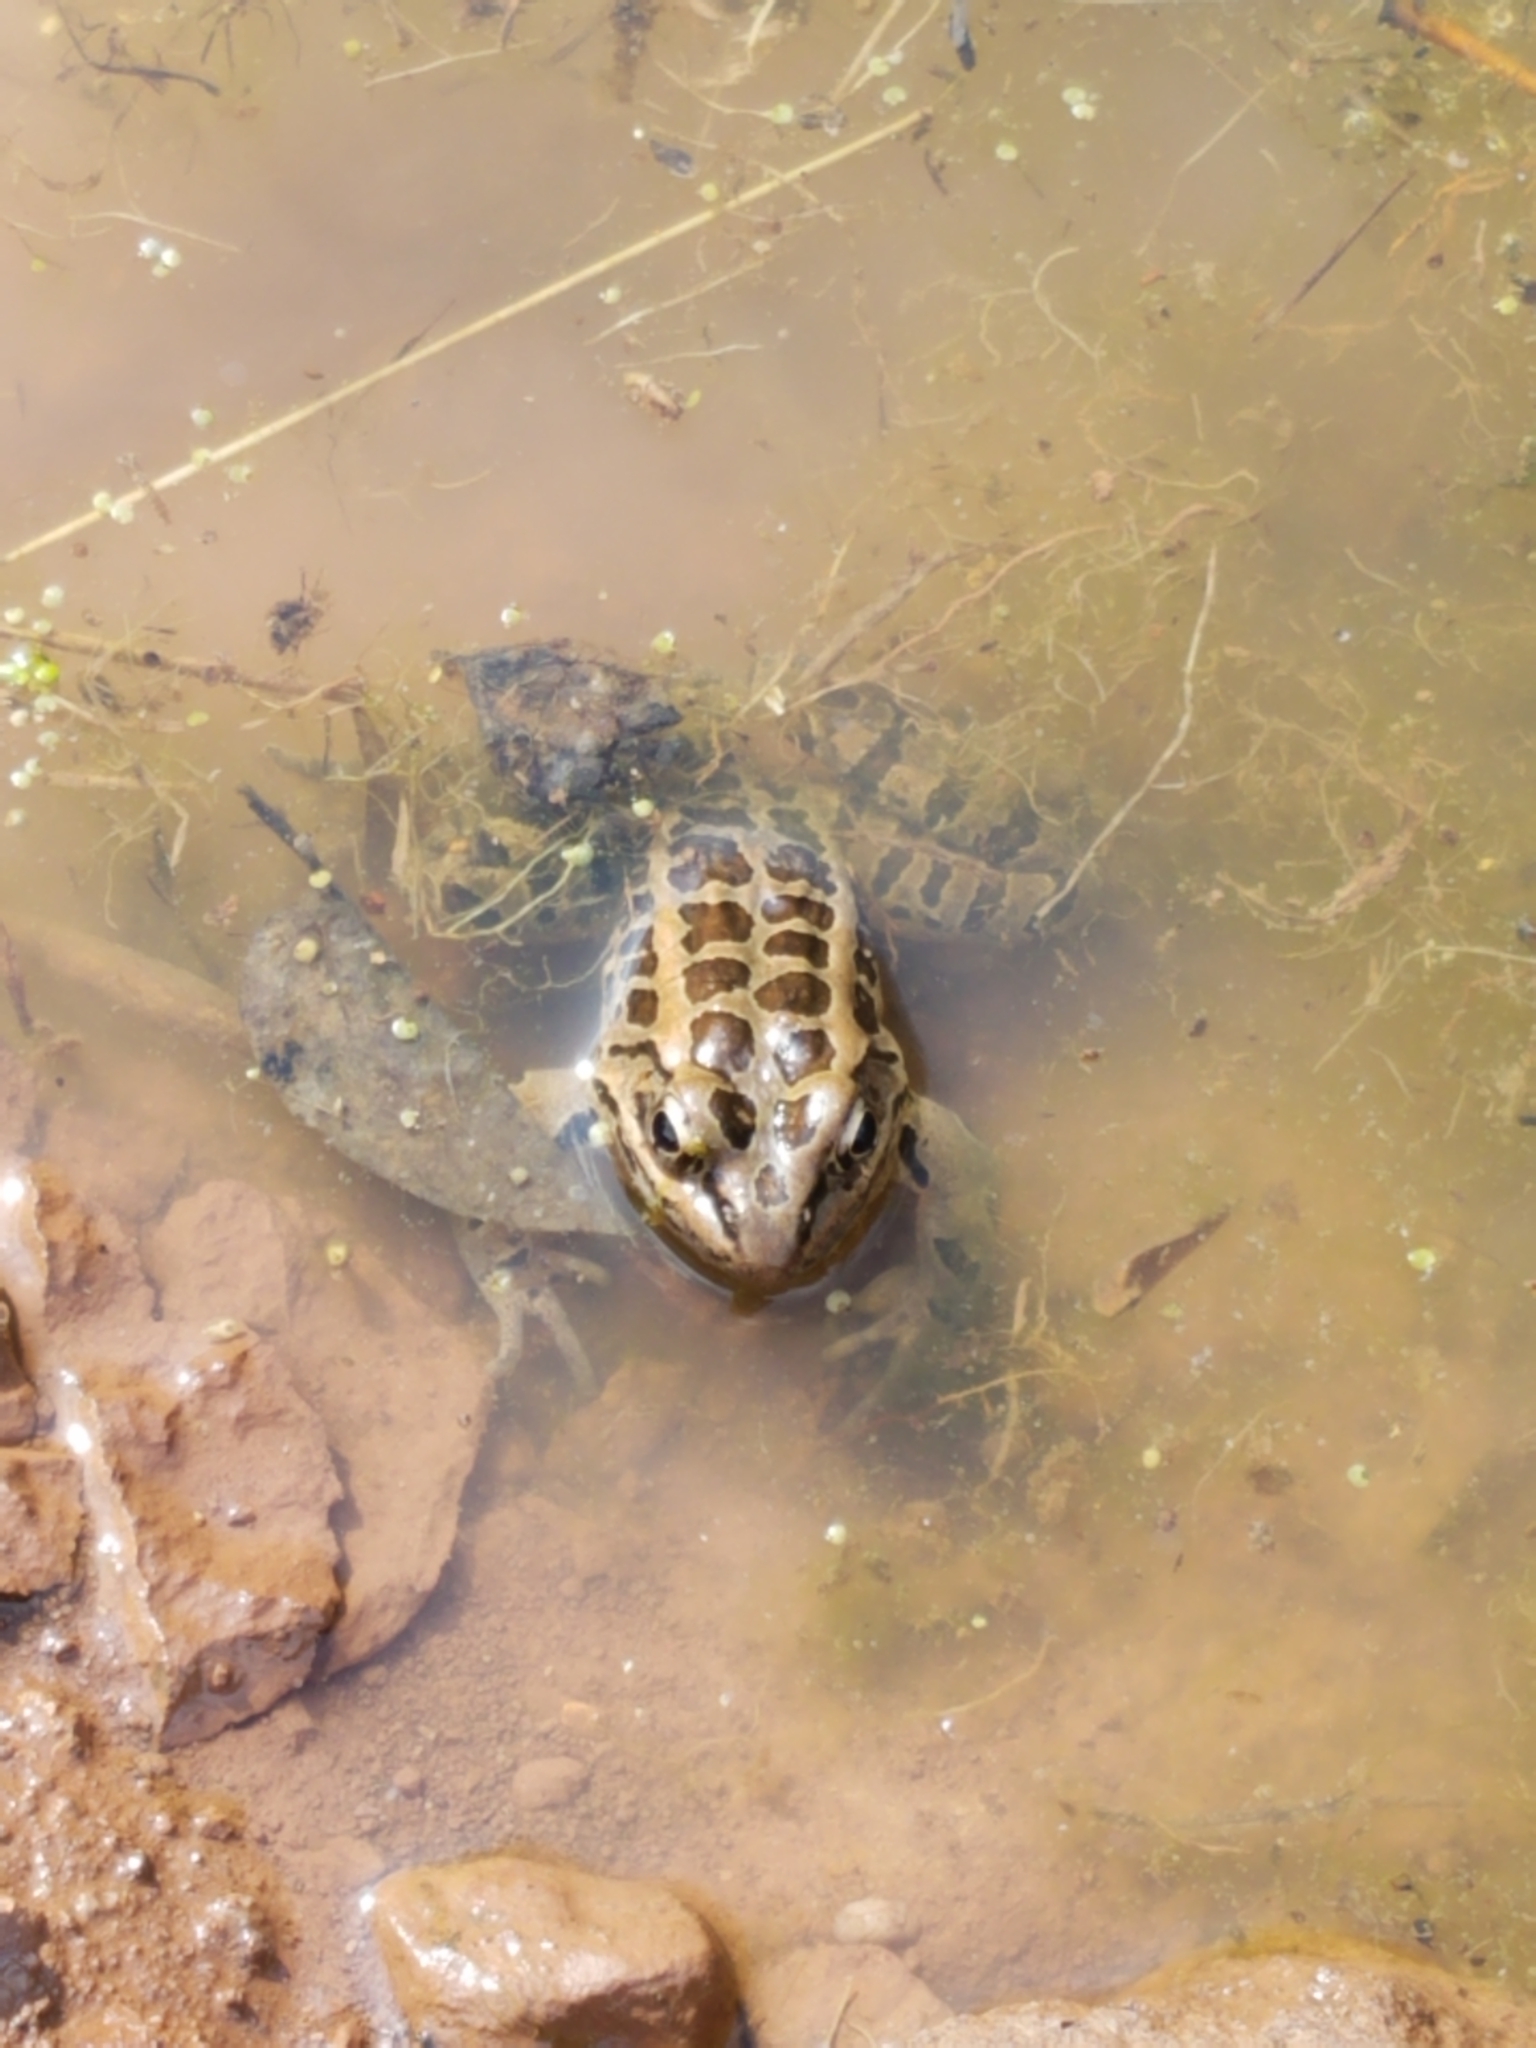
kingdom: Animalia
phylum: Chordata
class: Amphibia
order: Anura
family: Ranidae
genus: Lithobates
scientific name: Lithobates palustris
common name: Pickerel frog
